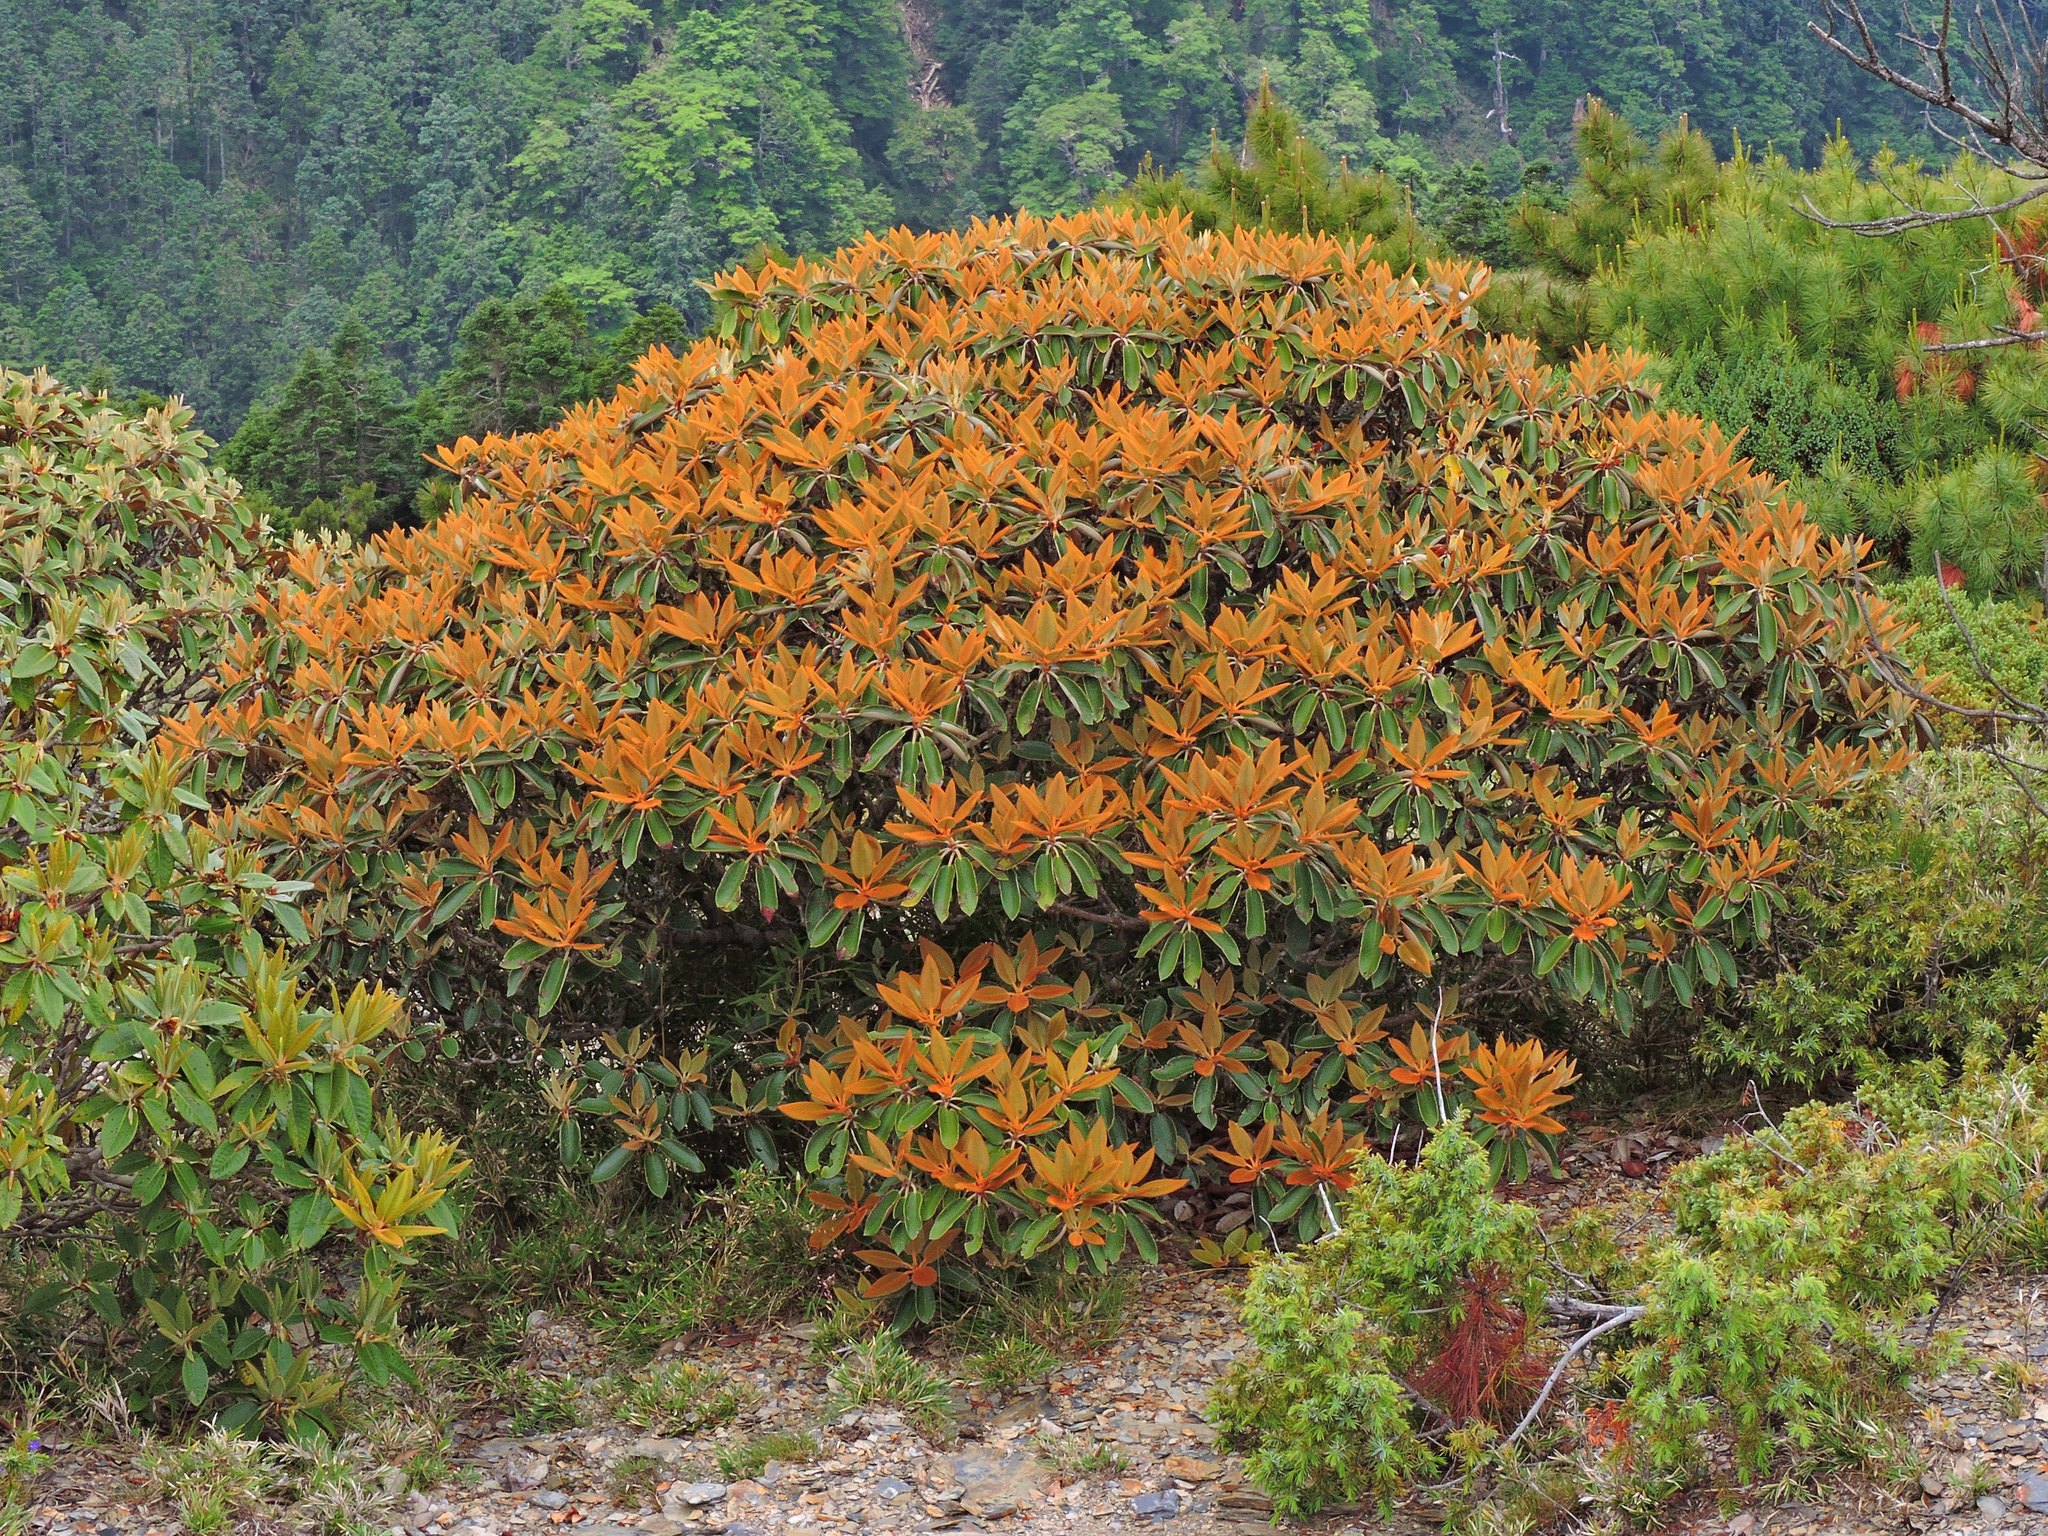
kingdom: Plantae
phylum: Tracheophyta
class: Magnoliopsida
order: Ericales
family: Ericaceae
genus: Rhododendron
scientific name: Rhododendron hyperythrum
